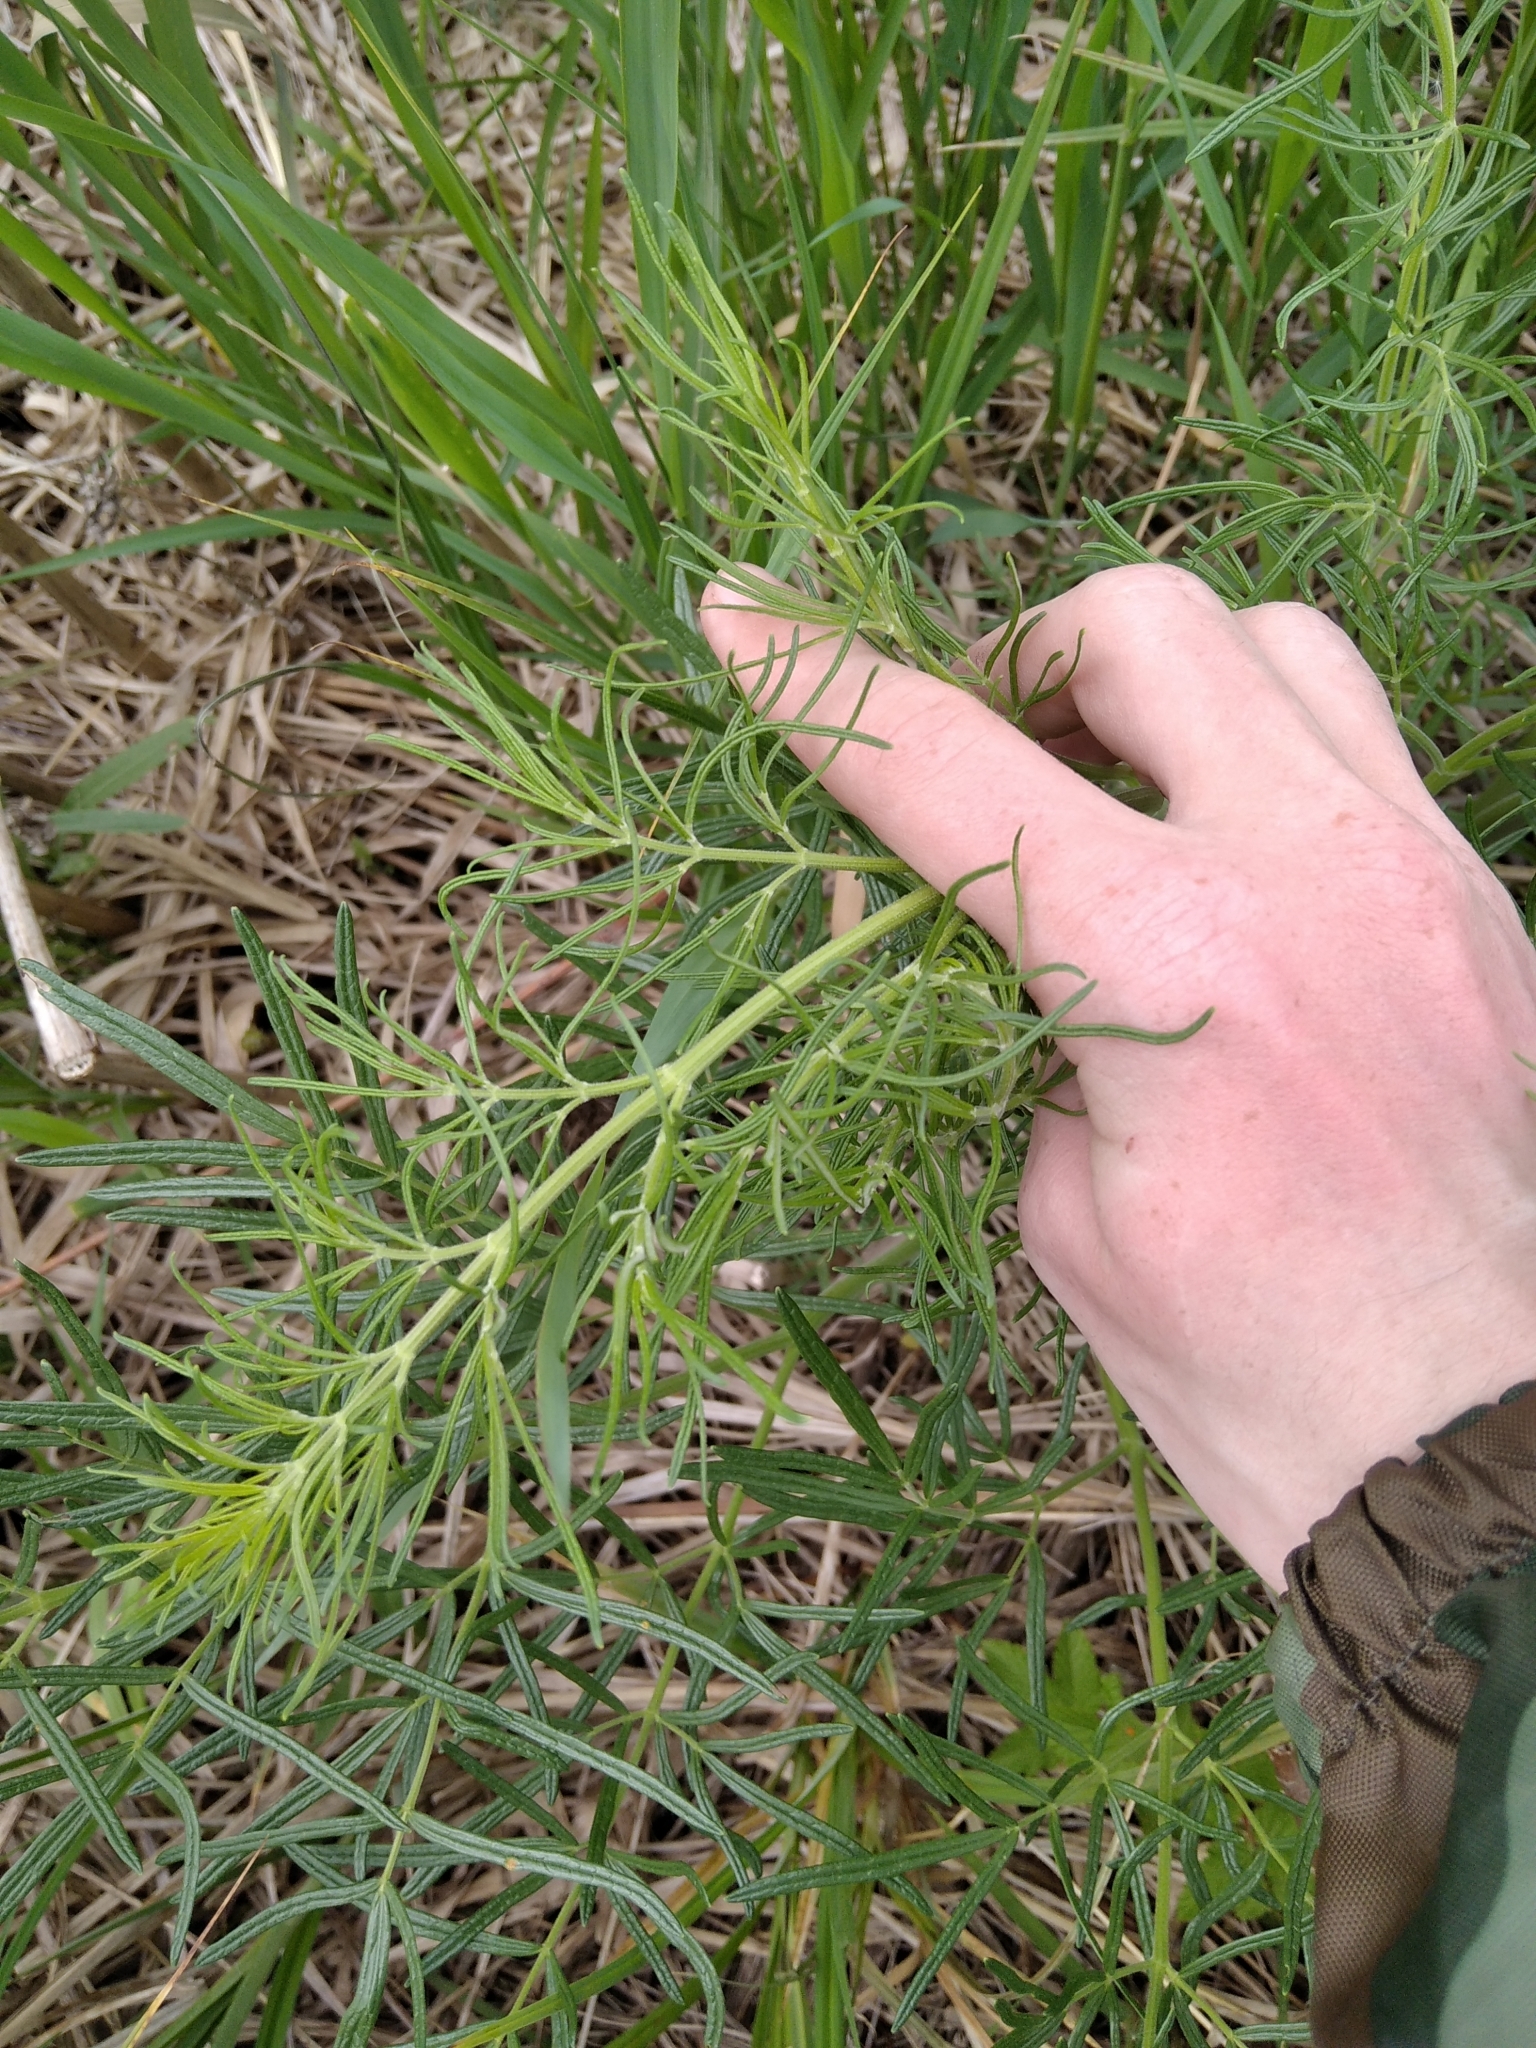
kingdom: Plantae
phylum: Tracheophyta
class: Magnoliopsida
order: Ranunculales
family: Ranunculaceae
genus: Thalictrum
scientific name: Thalictrum lucidum
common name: Shining meadow-rue
